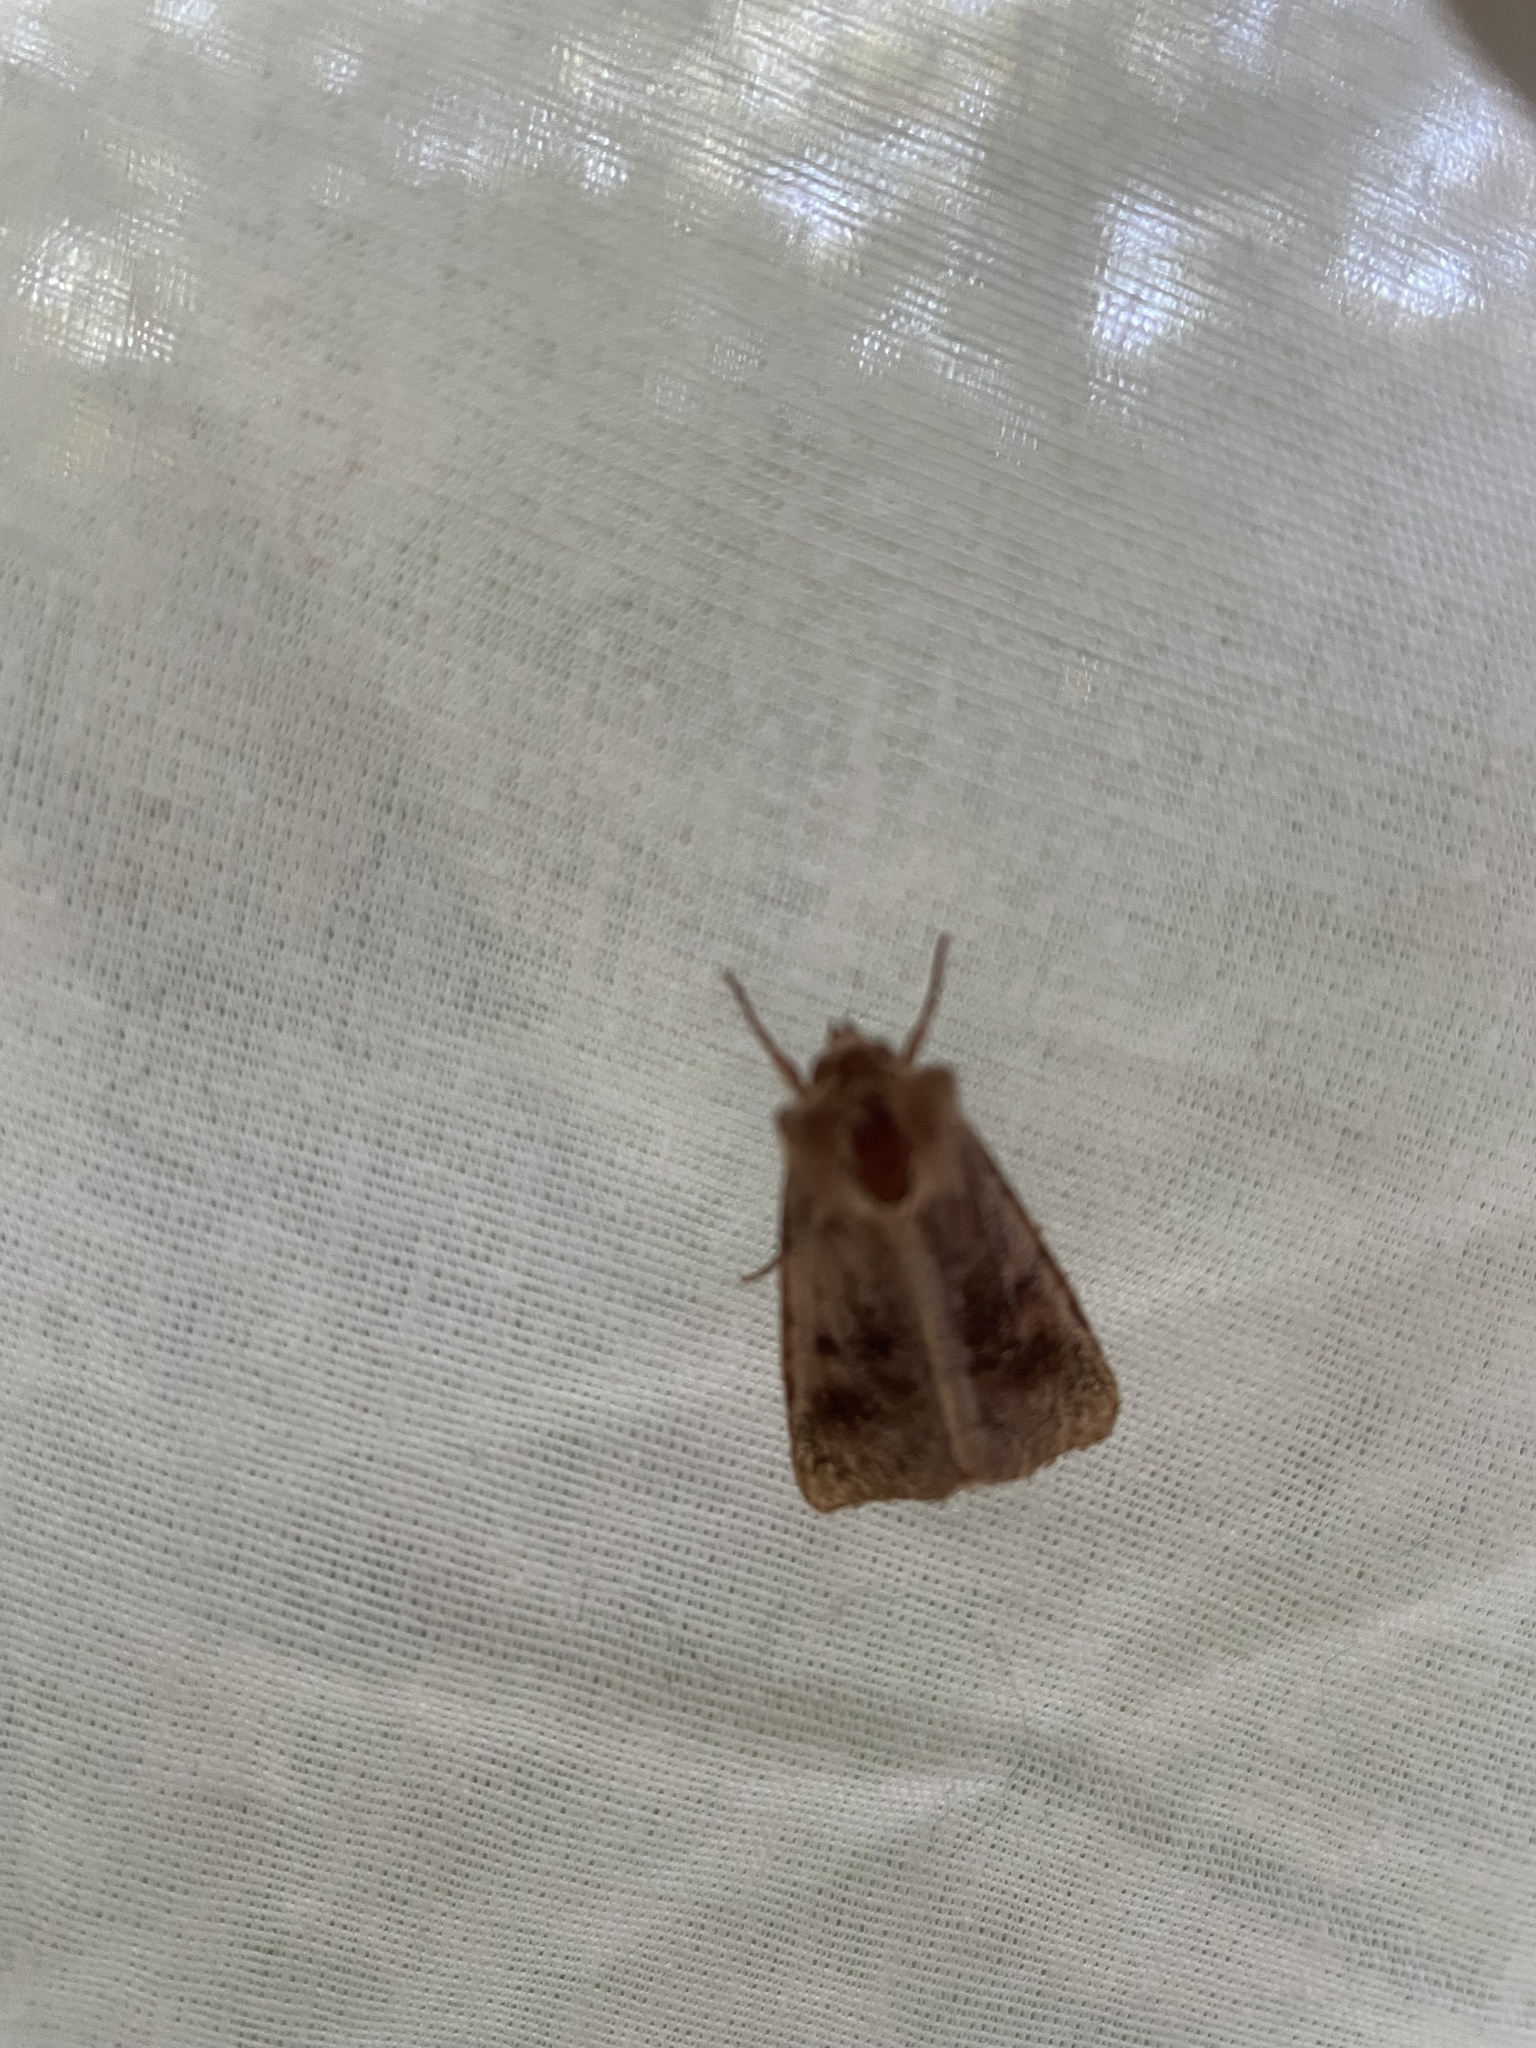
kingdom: Animalia
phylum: Arthropoda
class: Insecta
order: Lepidoptera
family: Noctuidae
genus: Nephelodes
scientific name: Nephelodes minians
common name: Bronzed cutworm
